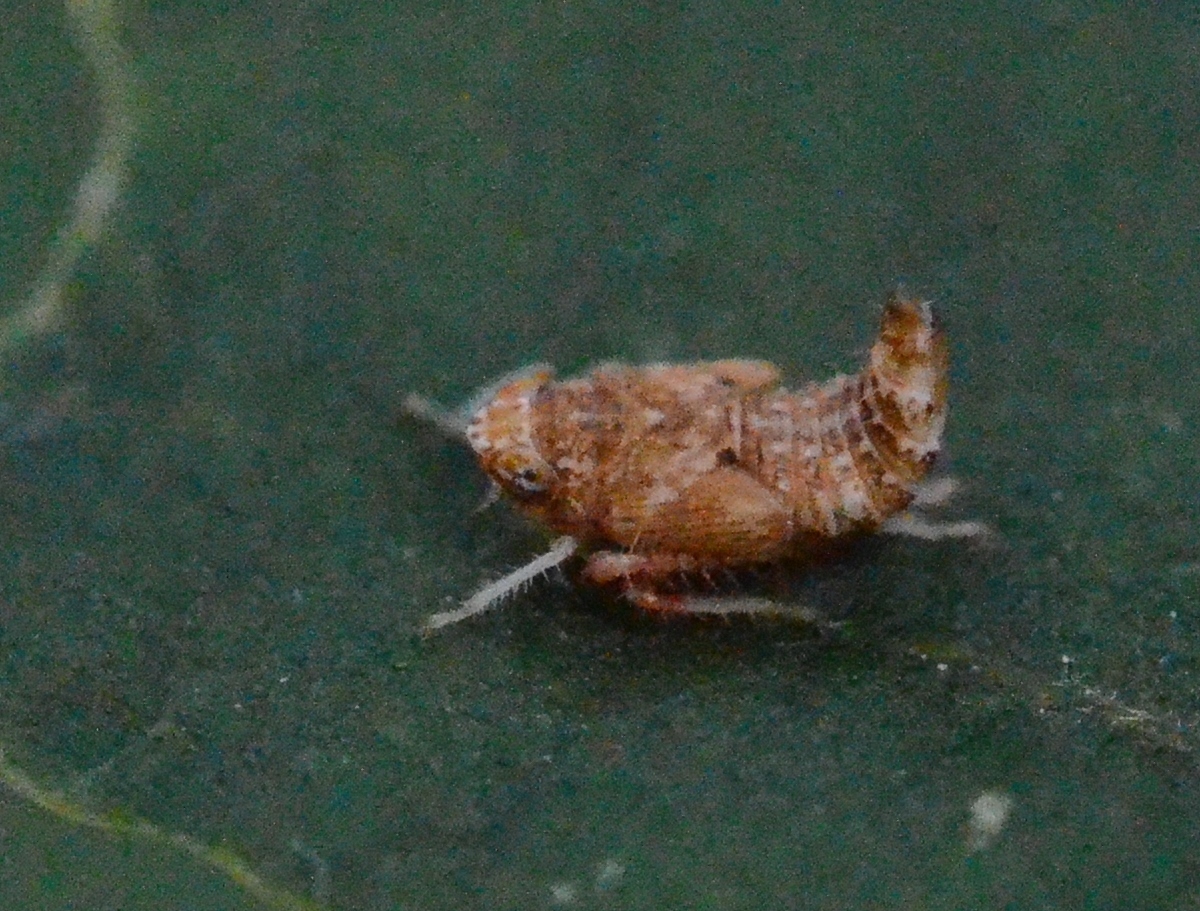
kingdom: Animalia
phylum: Arthropoda
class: Insecta
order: Hemiptera
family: Cicadellidae
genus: Orientus
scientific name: Orientus ishidae
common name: Japanese leafhopper
